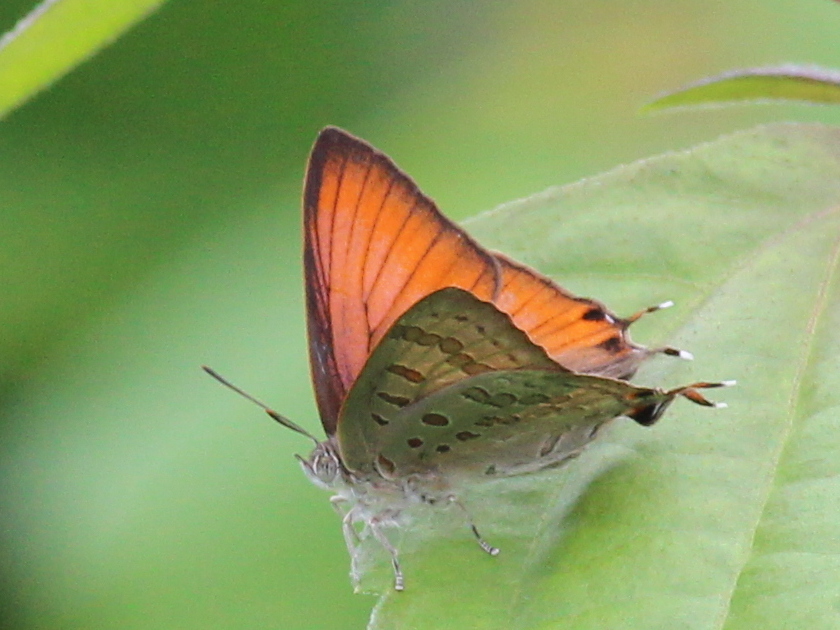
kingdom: Animalia
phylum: Arthropoda
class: Insecta
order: Lepidoptera
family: Lycaenidae
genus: Zesius
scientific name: Zesius chrysomallus
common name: Redspot
